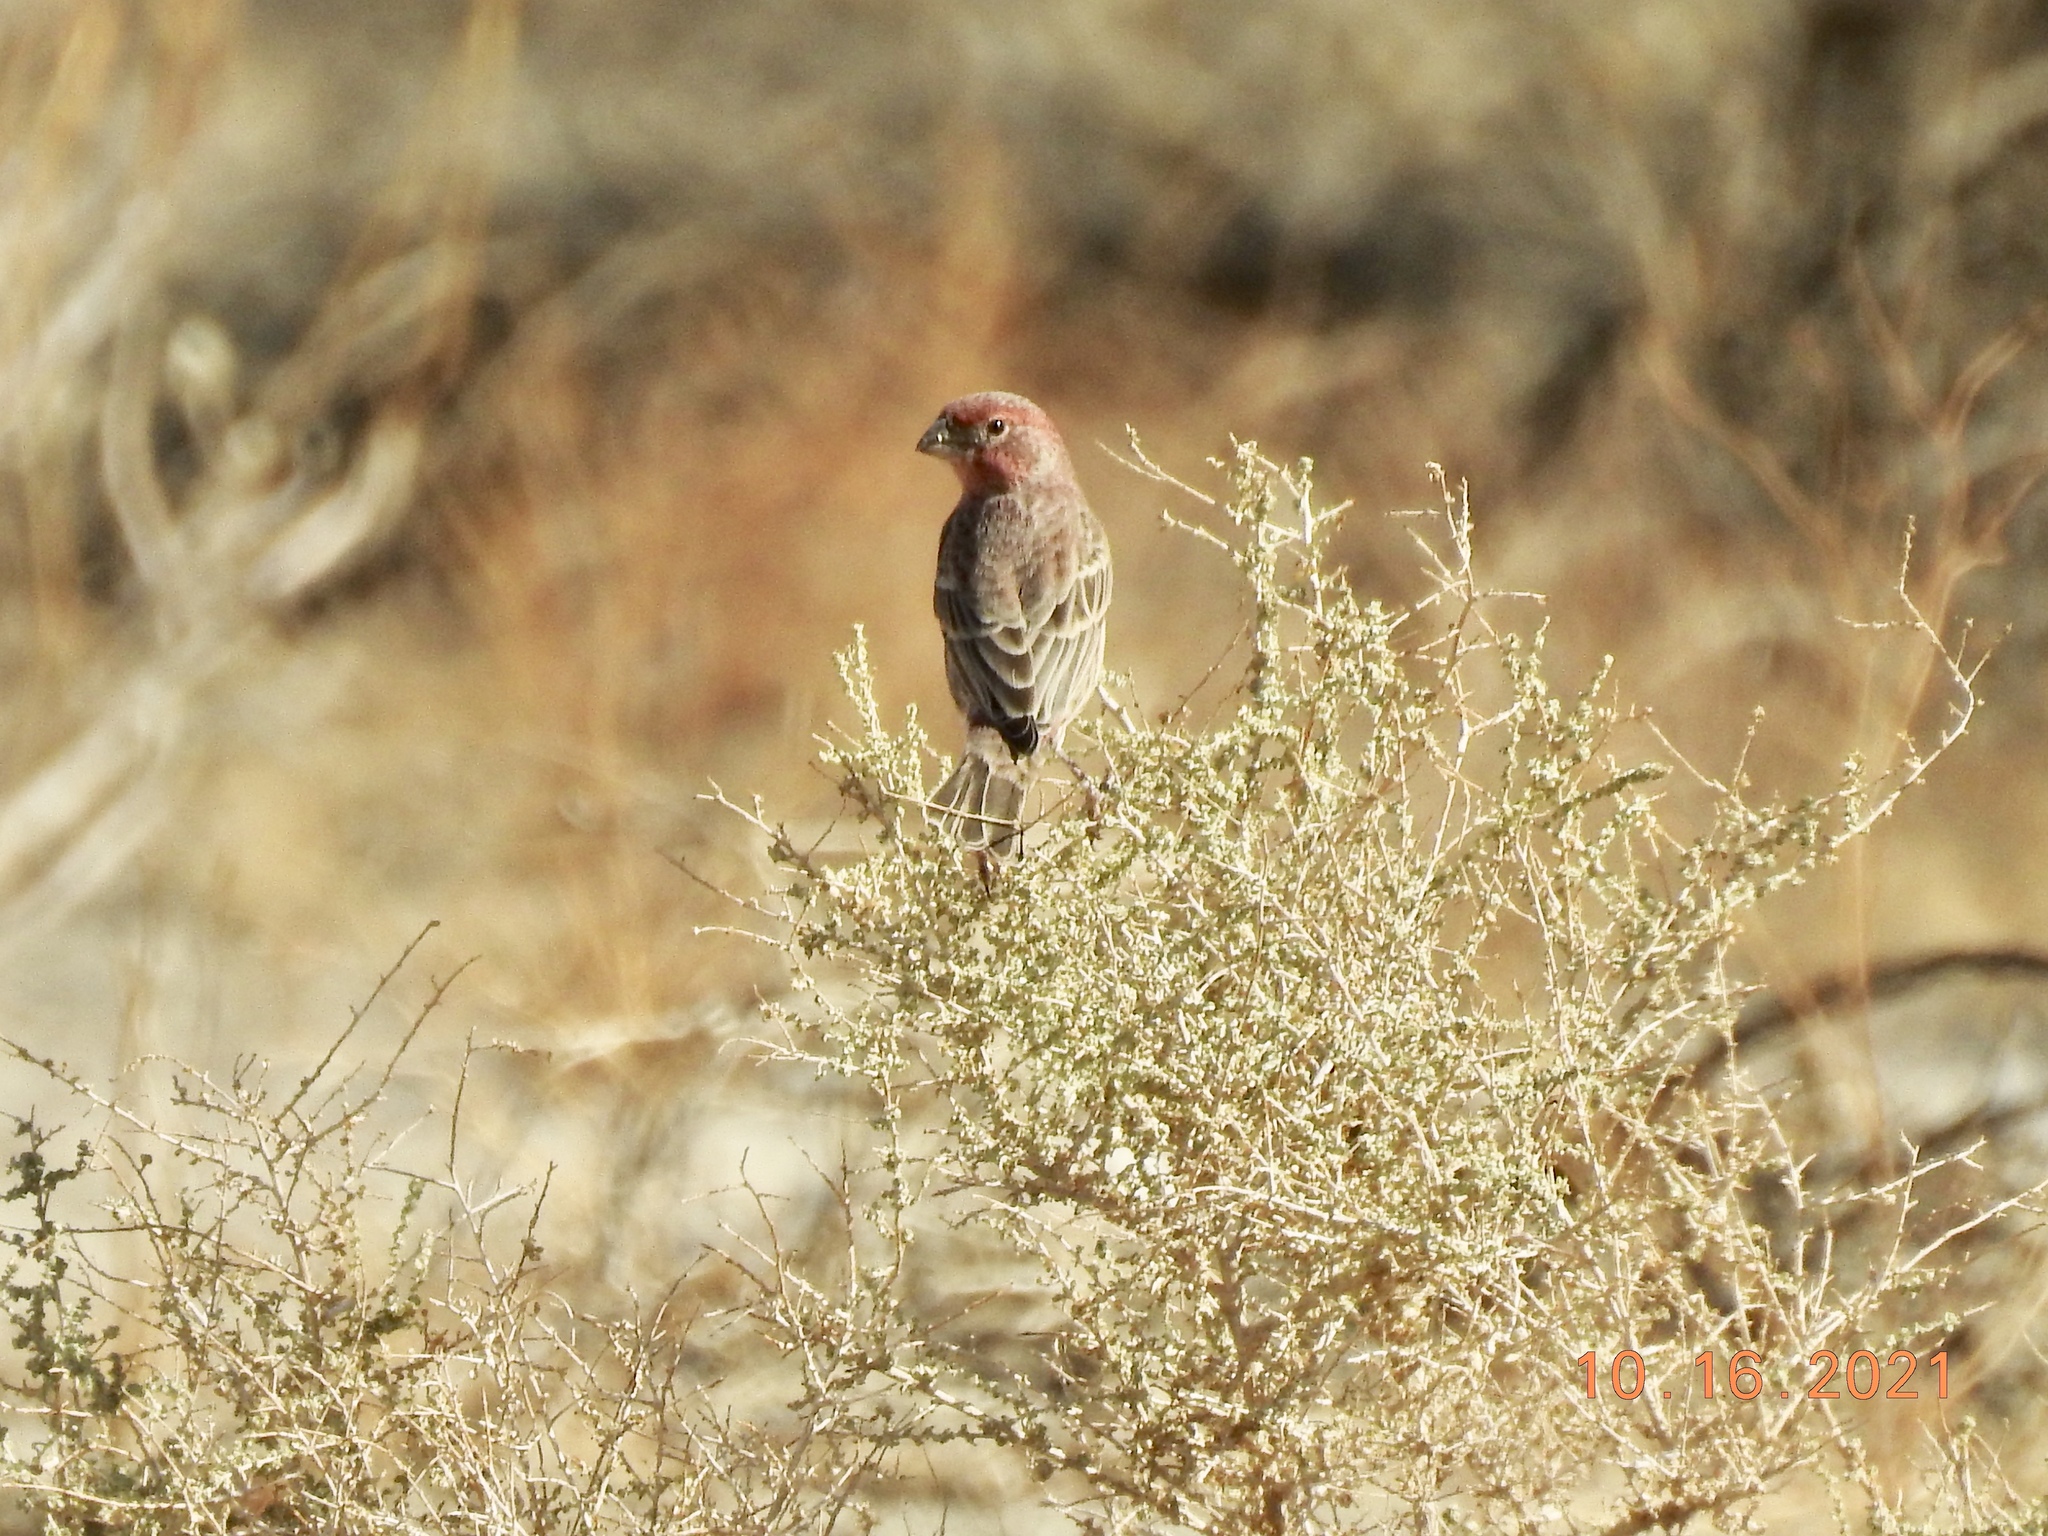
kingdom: Animalia
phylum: Chordata
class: Aves
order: Passeriformes
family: Fringillidae
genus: Haemorhous
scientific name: Haemorhous mexicanus
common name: House finch
